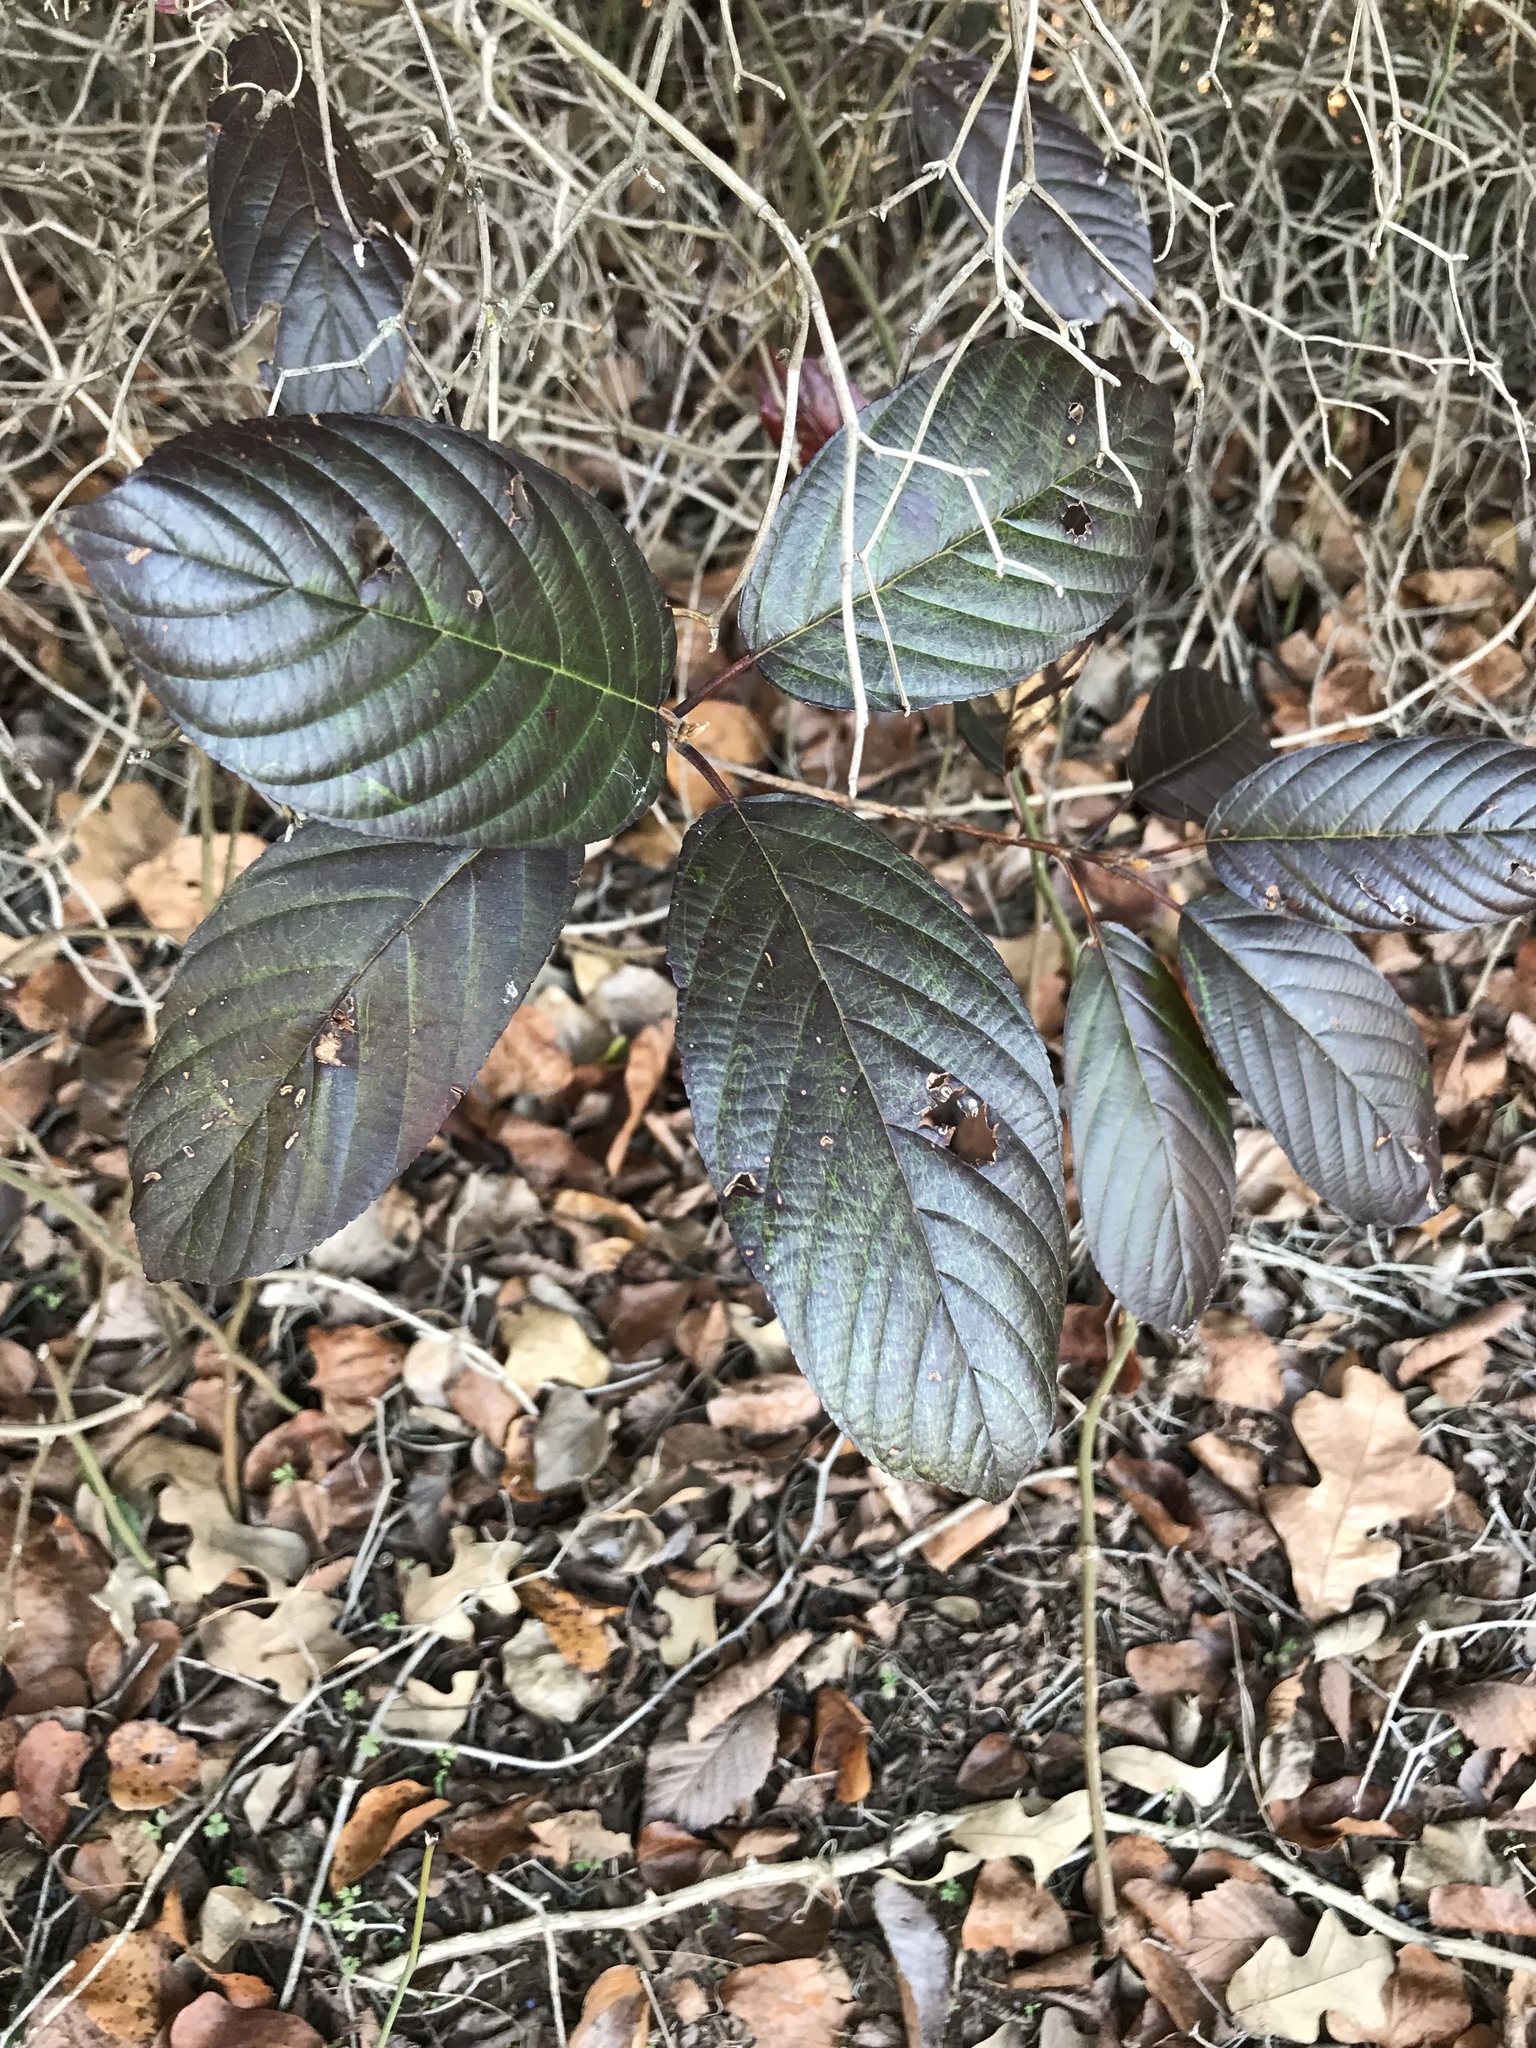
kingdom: Plantae
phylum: Tracheophyta
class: Magnoliopsida
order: Rosales
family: Rhamnaceae
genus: Frangula
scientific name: Frangula caroliniana
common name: Carolina buckthorn
